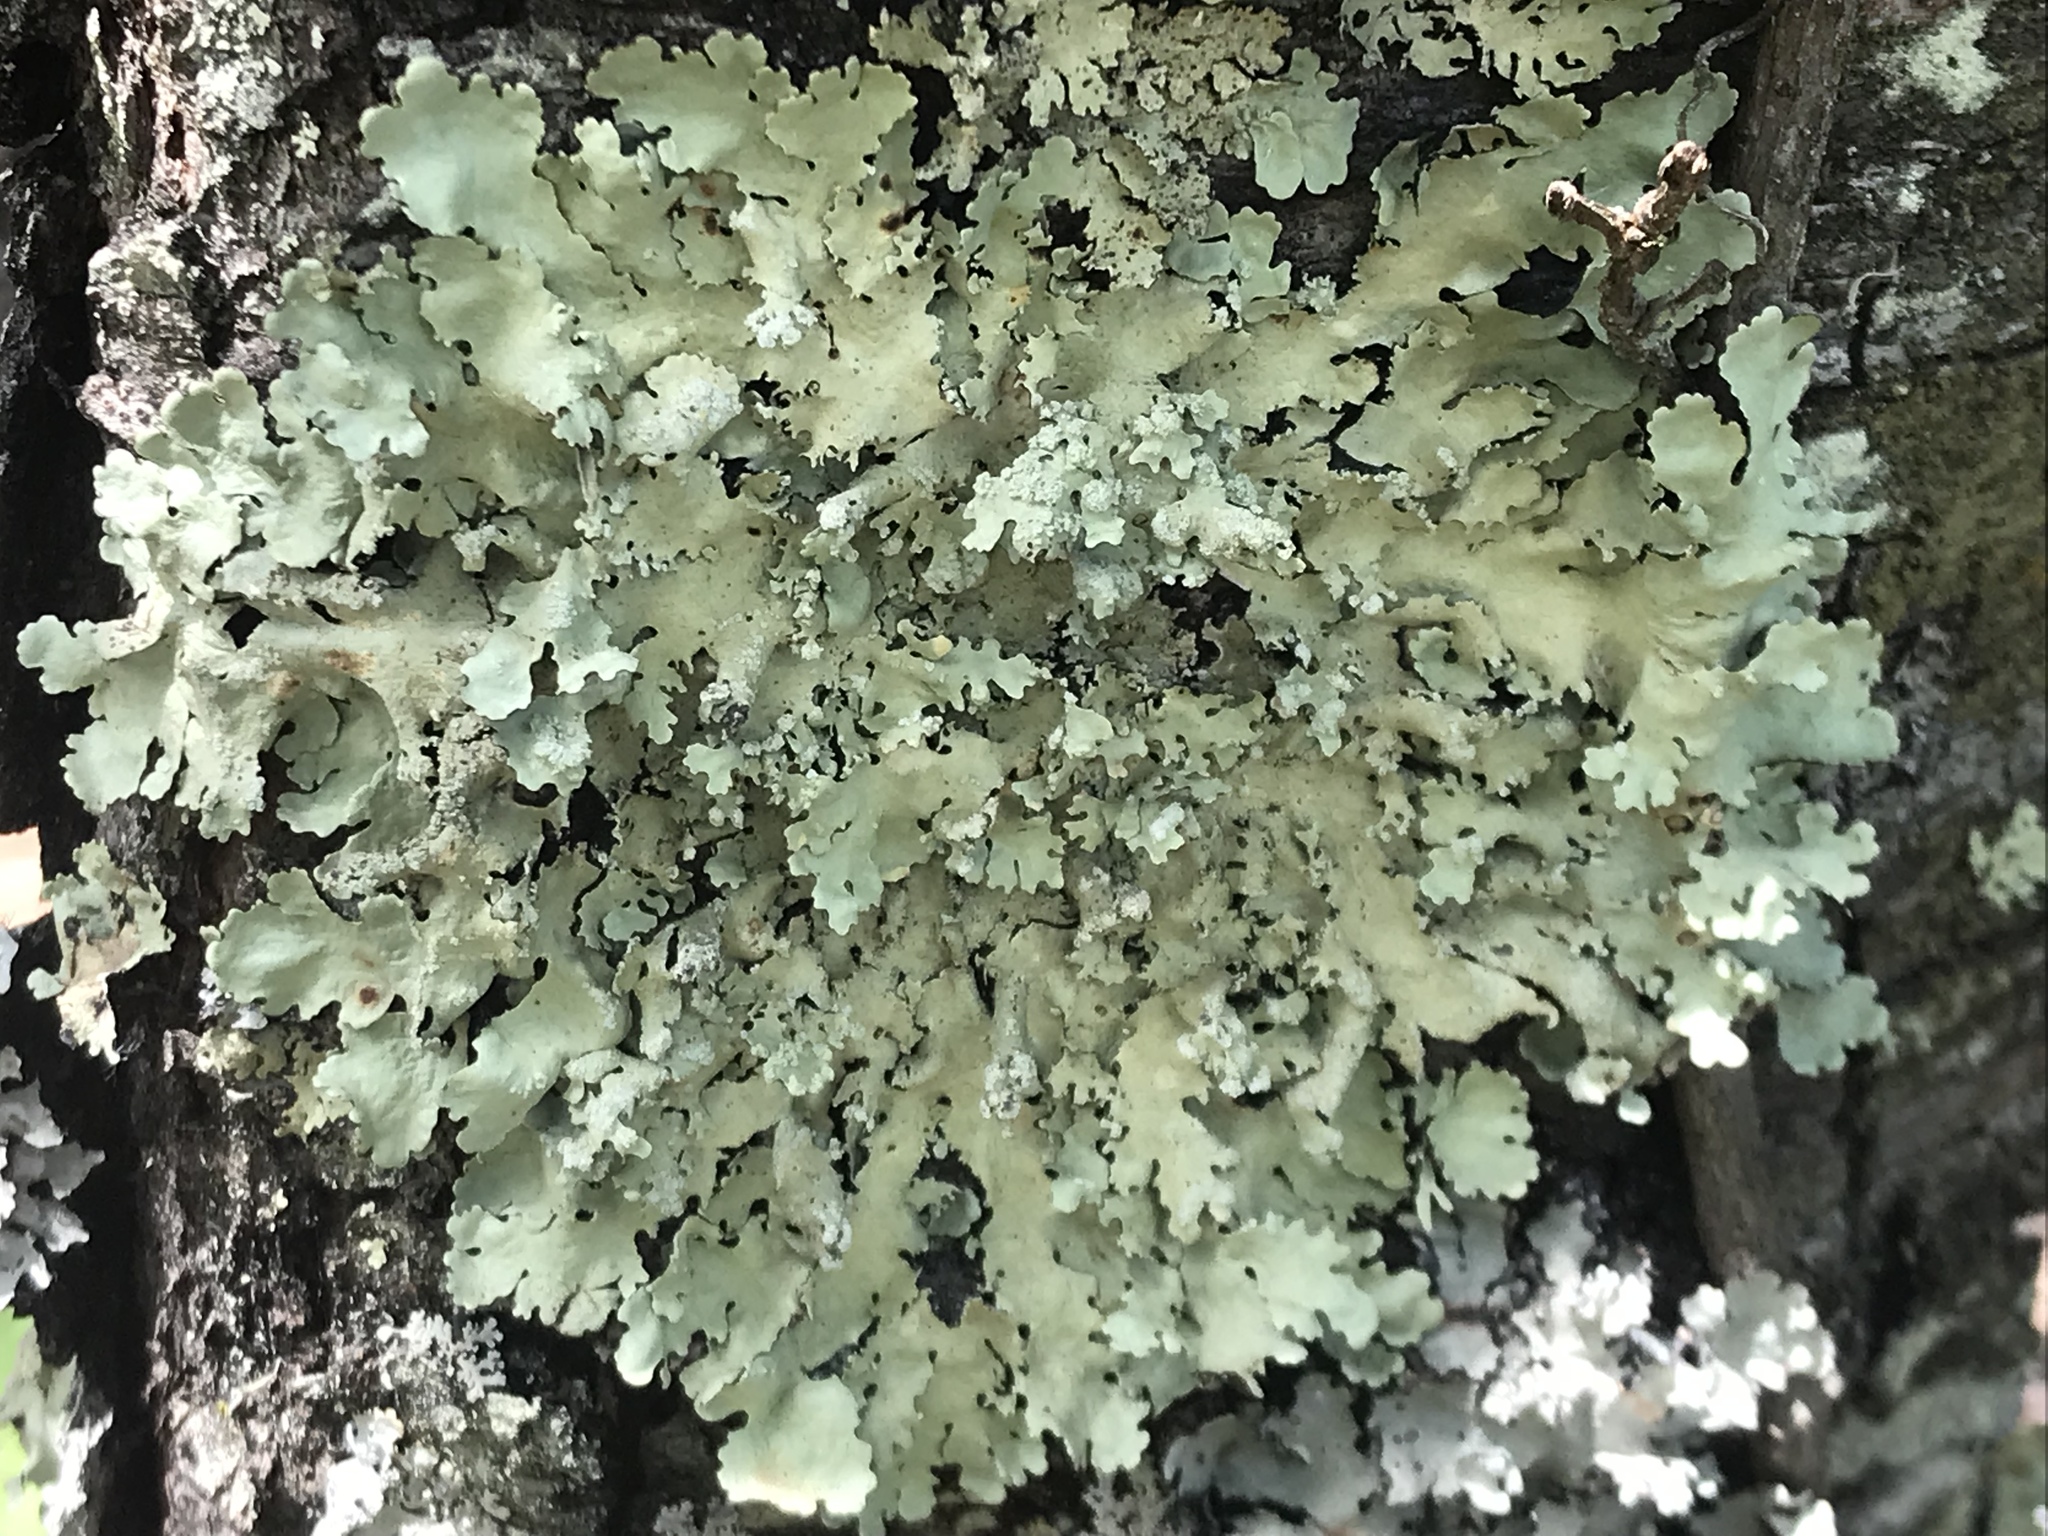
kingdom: Fungi
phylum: Ascomycota
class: Lecanoromycetes
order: Lecanorales
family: Parmeliaceae
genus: Flavoparmelia
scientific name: Flavoparmelia caperata
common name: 40-mile per hour lichen
